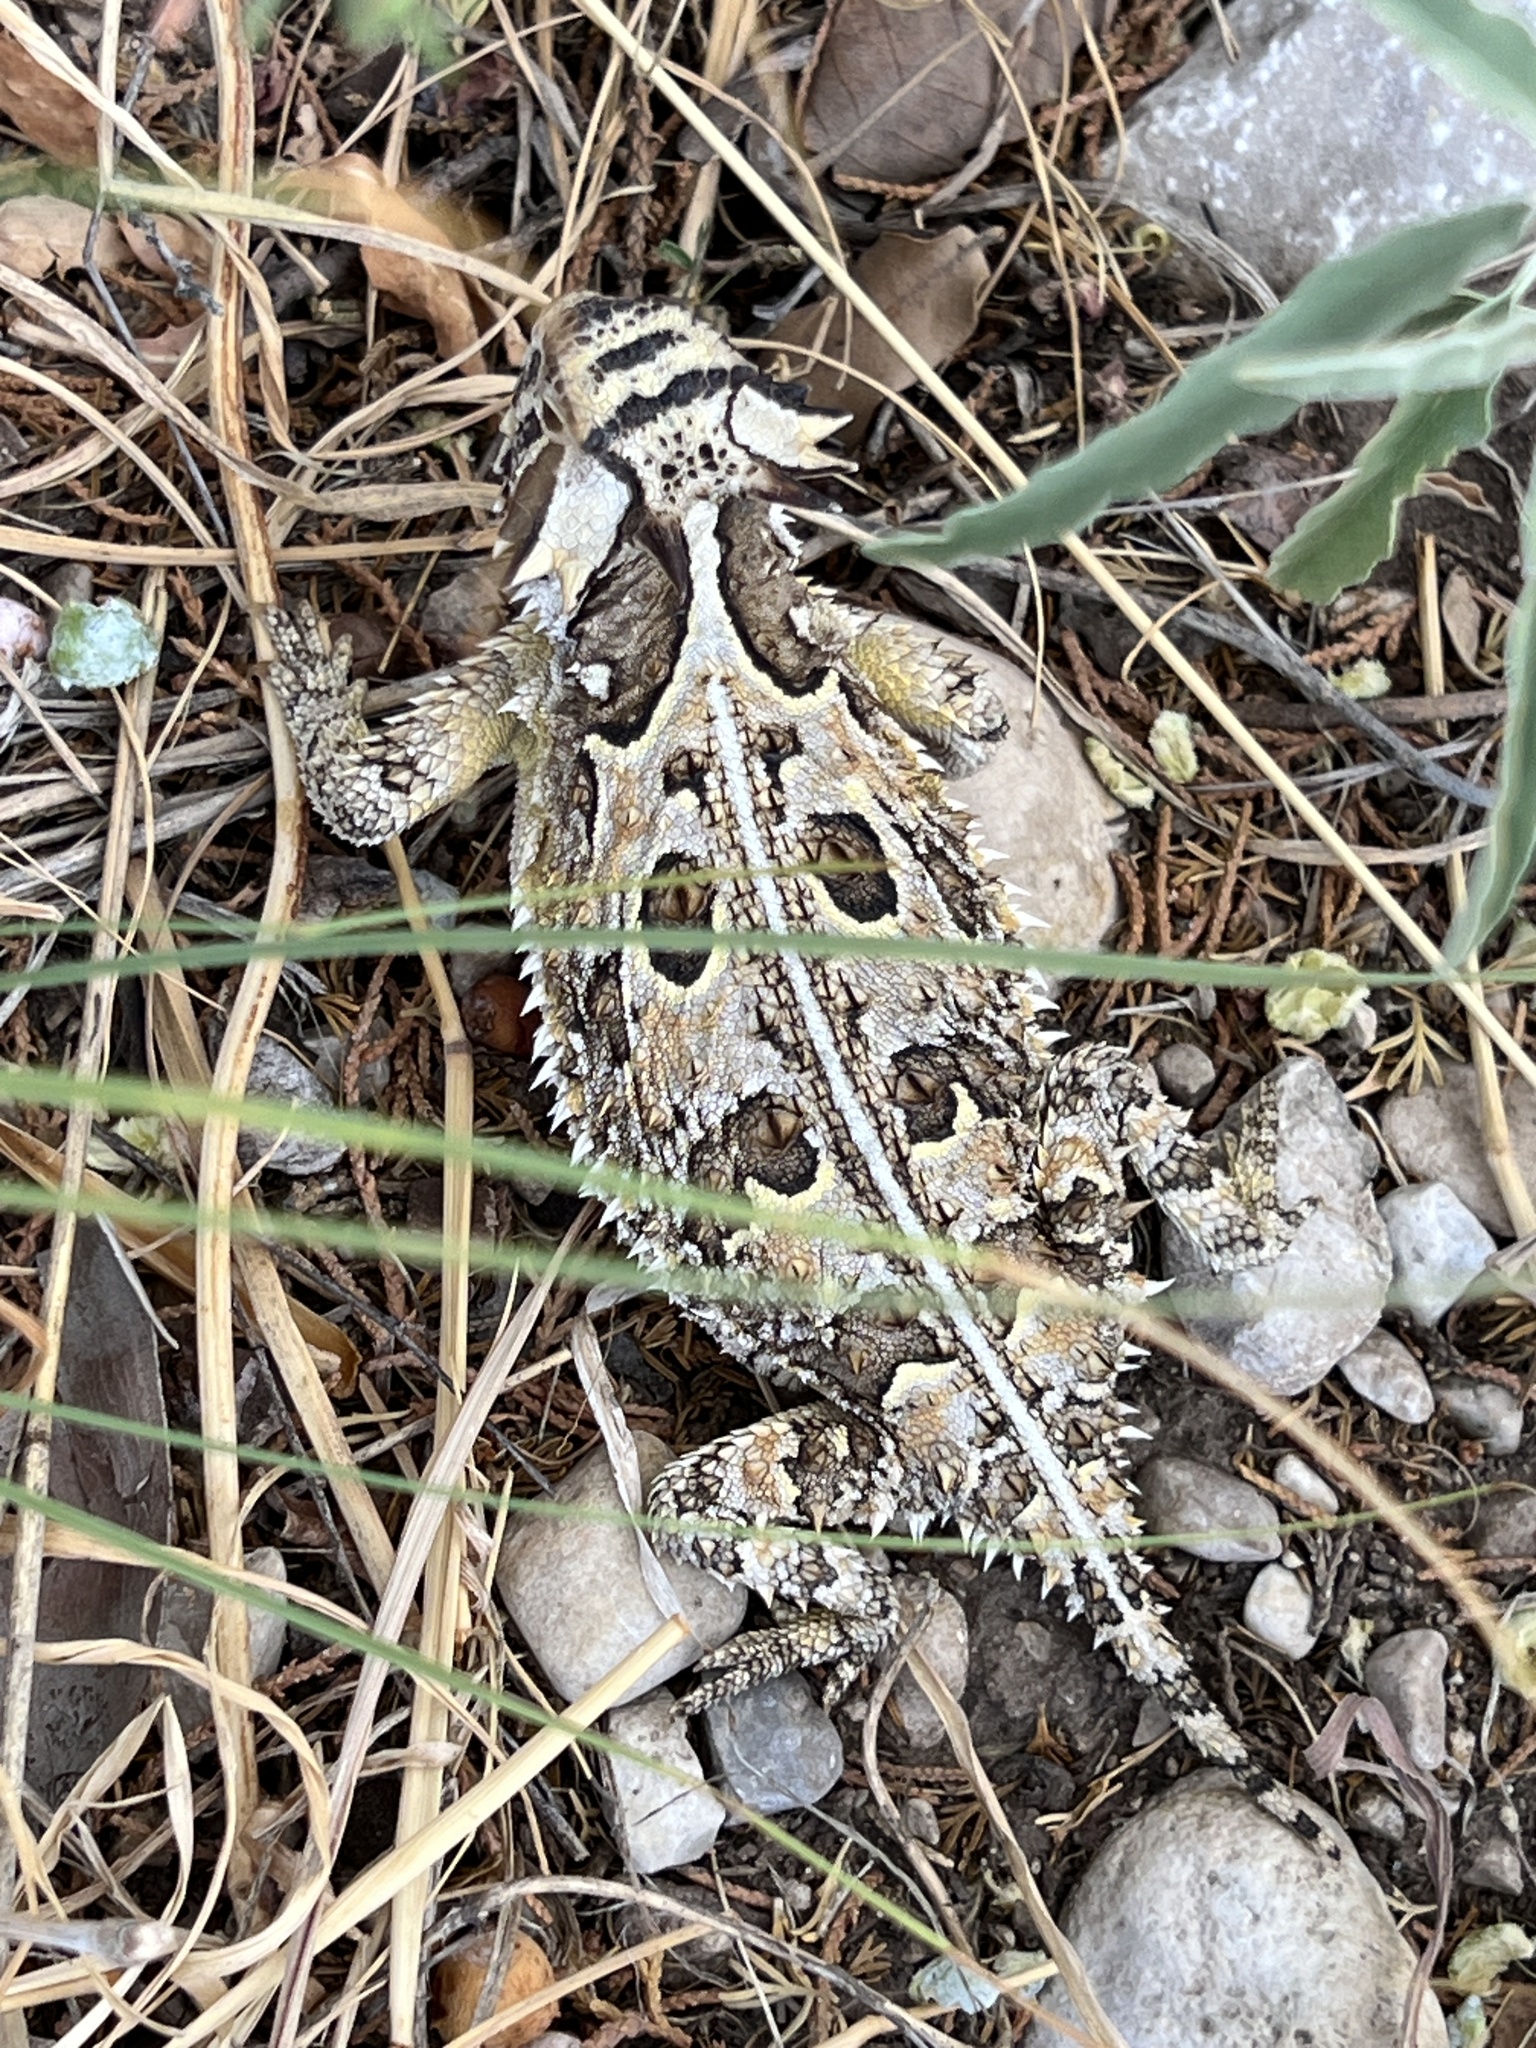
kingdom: Animalia
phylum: Chordata
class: Squamata
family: Phrynosomatidae
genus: Phrynosoma
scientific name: Phrynosoma cornutum
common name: Texas horned lizard
